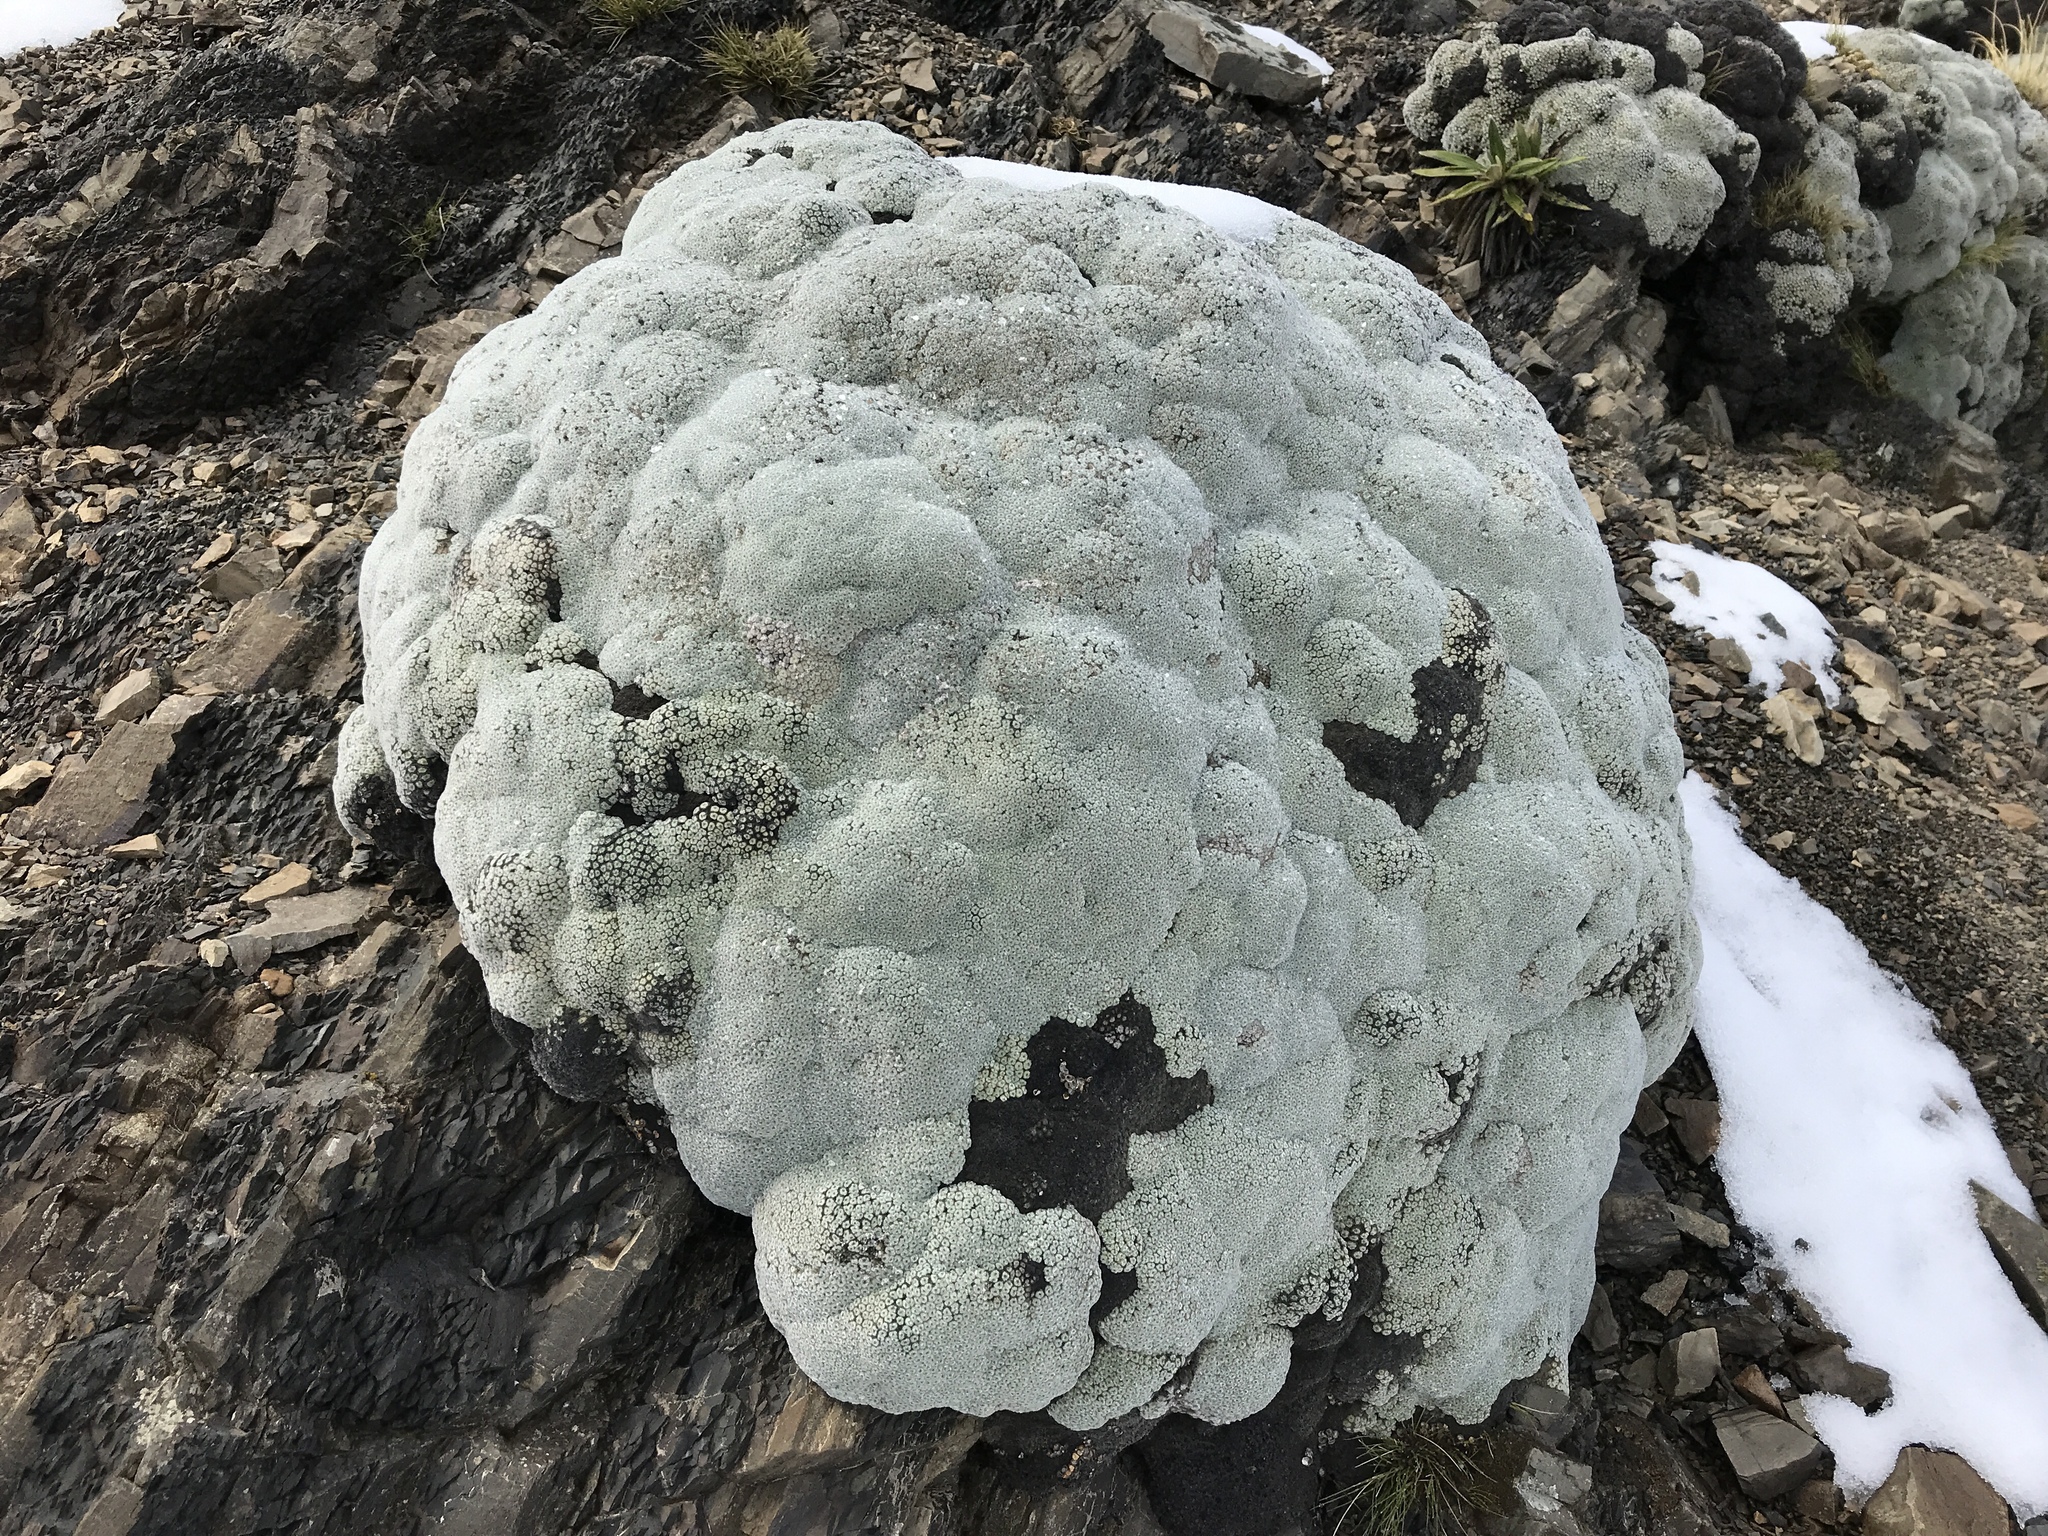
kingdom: Plantae
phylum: Tracheophyta
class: Magnoliopsida
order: Asterales
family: Asteraceae
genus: Raoulia
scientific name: Raoulia eximia
